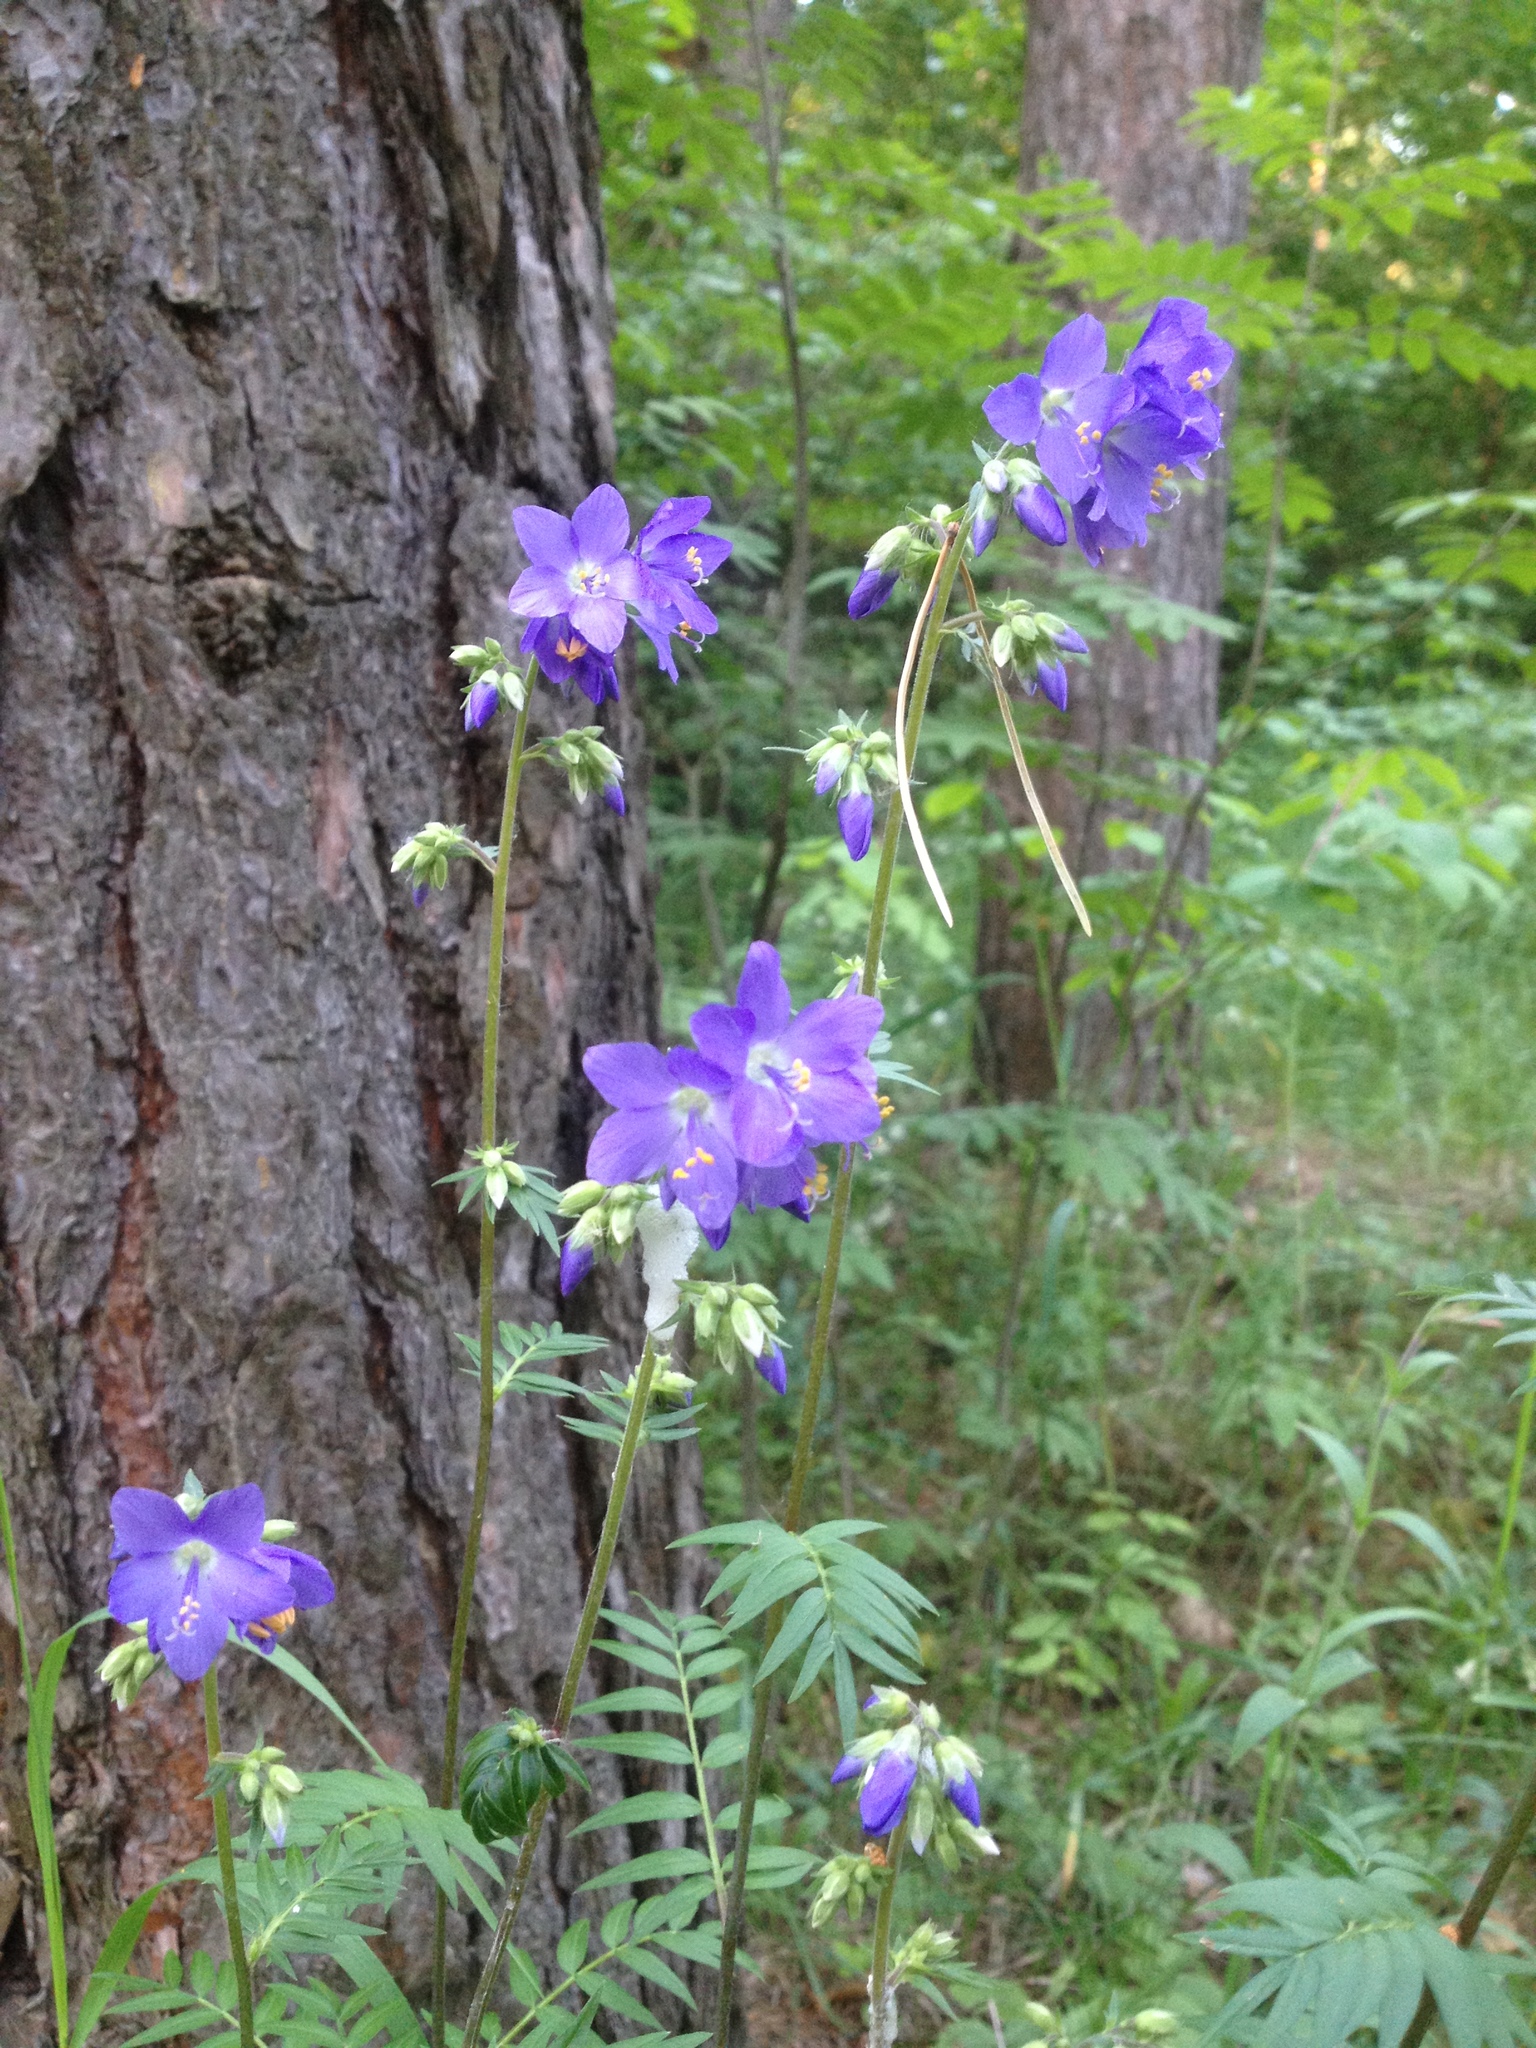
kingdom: Plantae
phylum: Tracheophyta
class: Magnoliopsida
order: Ericales
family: Polemoniaceae
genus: Polemonium
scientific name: Polemonium caeruleum
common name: Jacob's-ladder
